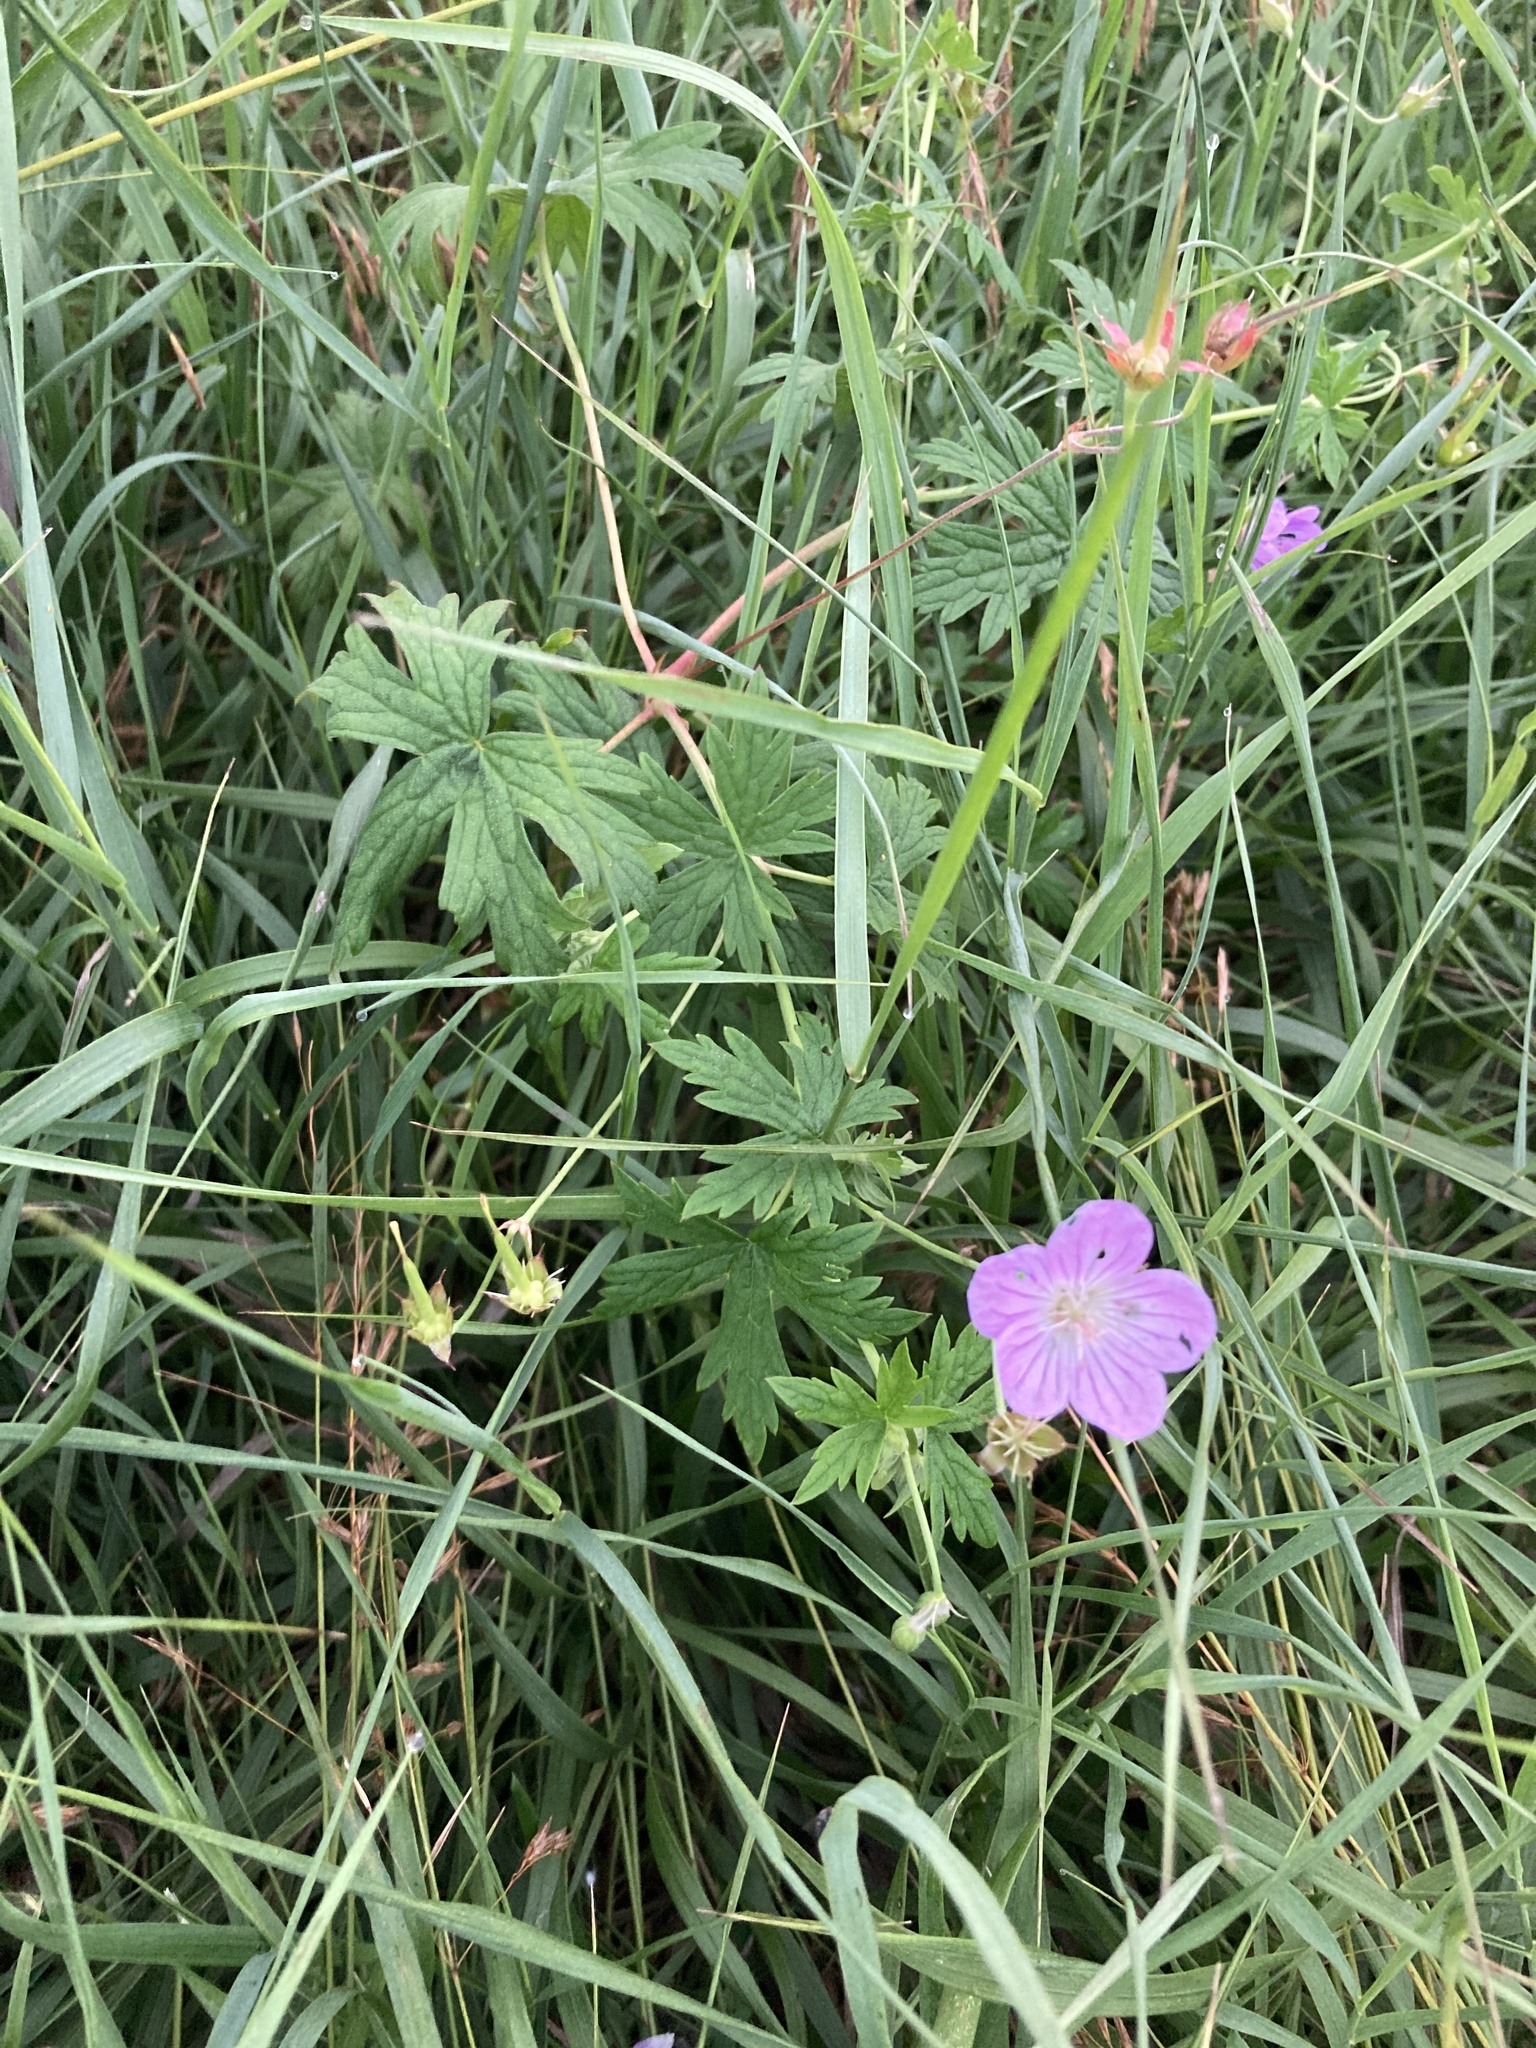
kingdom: Plantae
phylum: Tracheophyta
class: Magnoliopsida
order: Geraniales
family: Geraniaceae
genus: Geranium
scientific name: Geranium collinum
